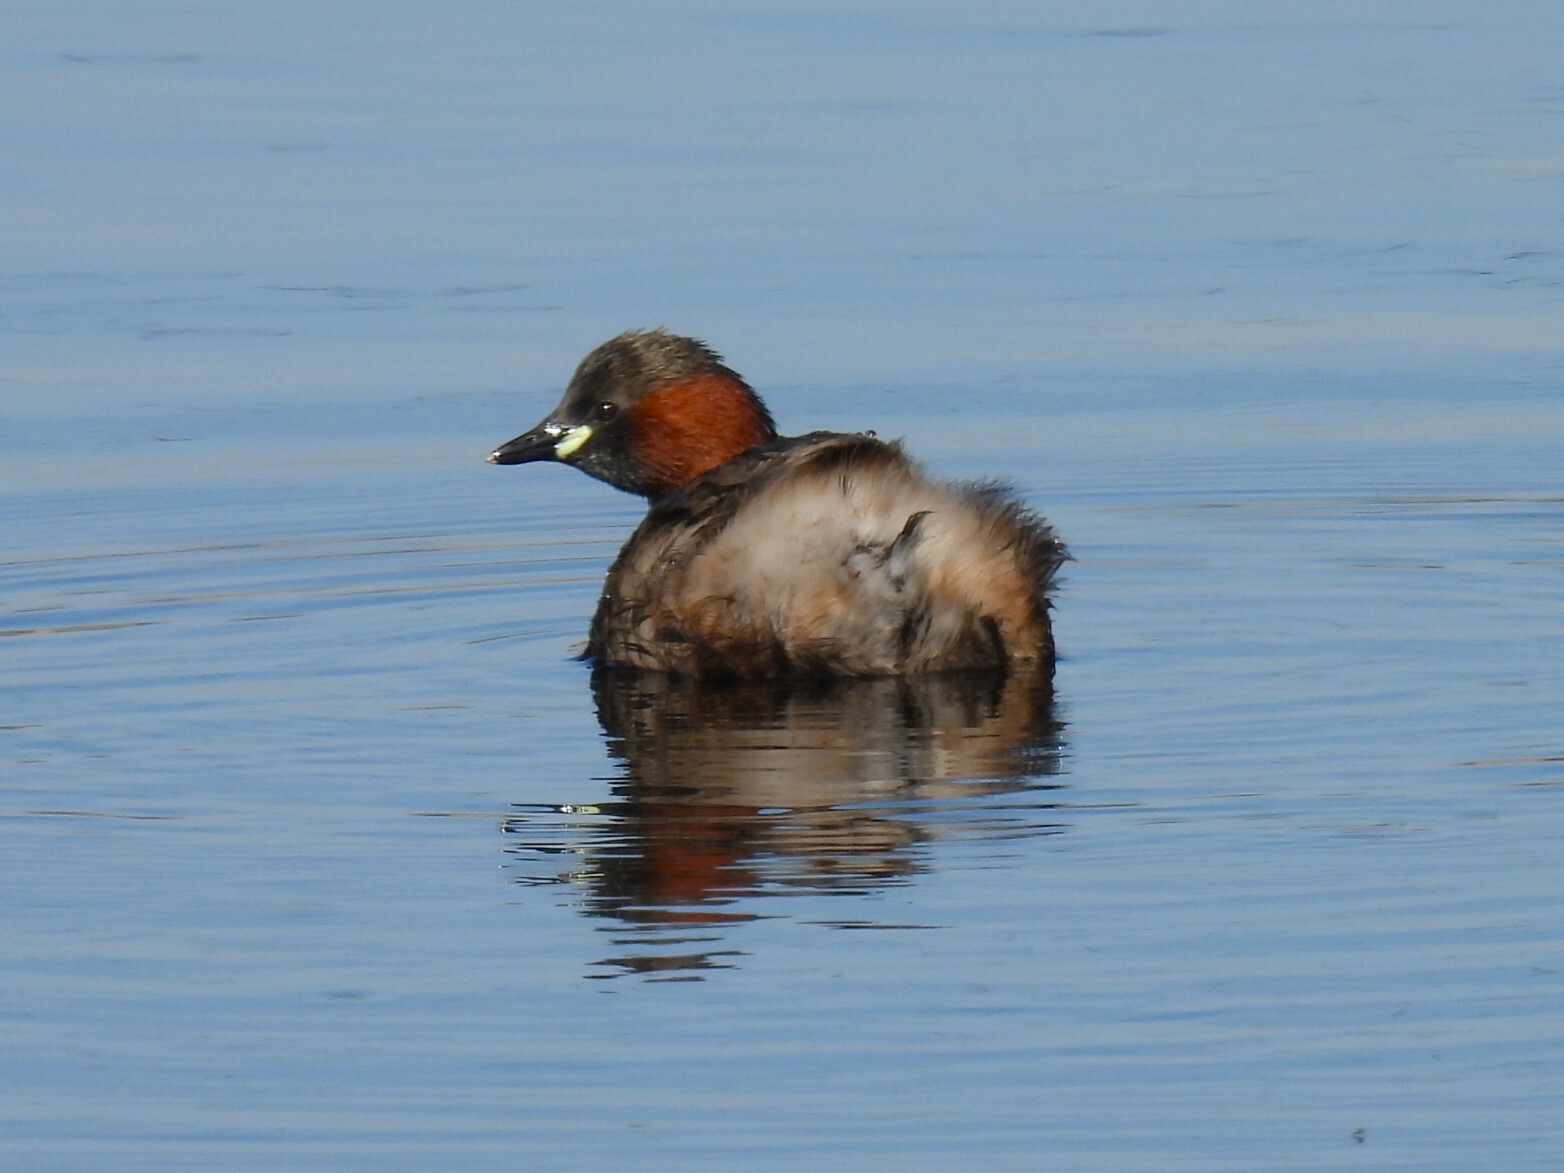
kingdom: Animalia
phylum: Chordata
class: Aves
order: Podicipediformes
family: Podicipedidae
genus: Tachybaptus
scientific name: Tachybaptus ruficollis
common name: Little grebe
